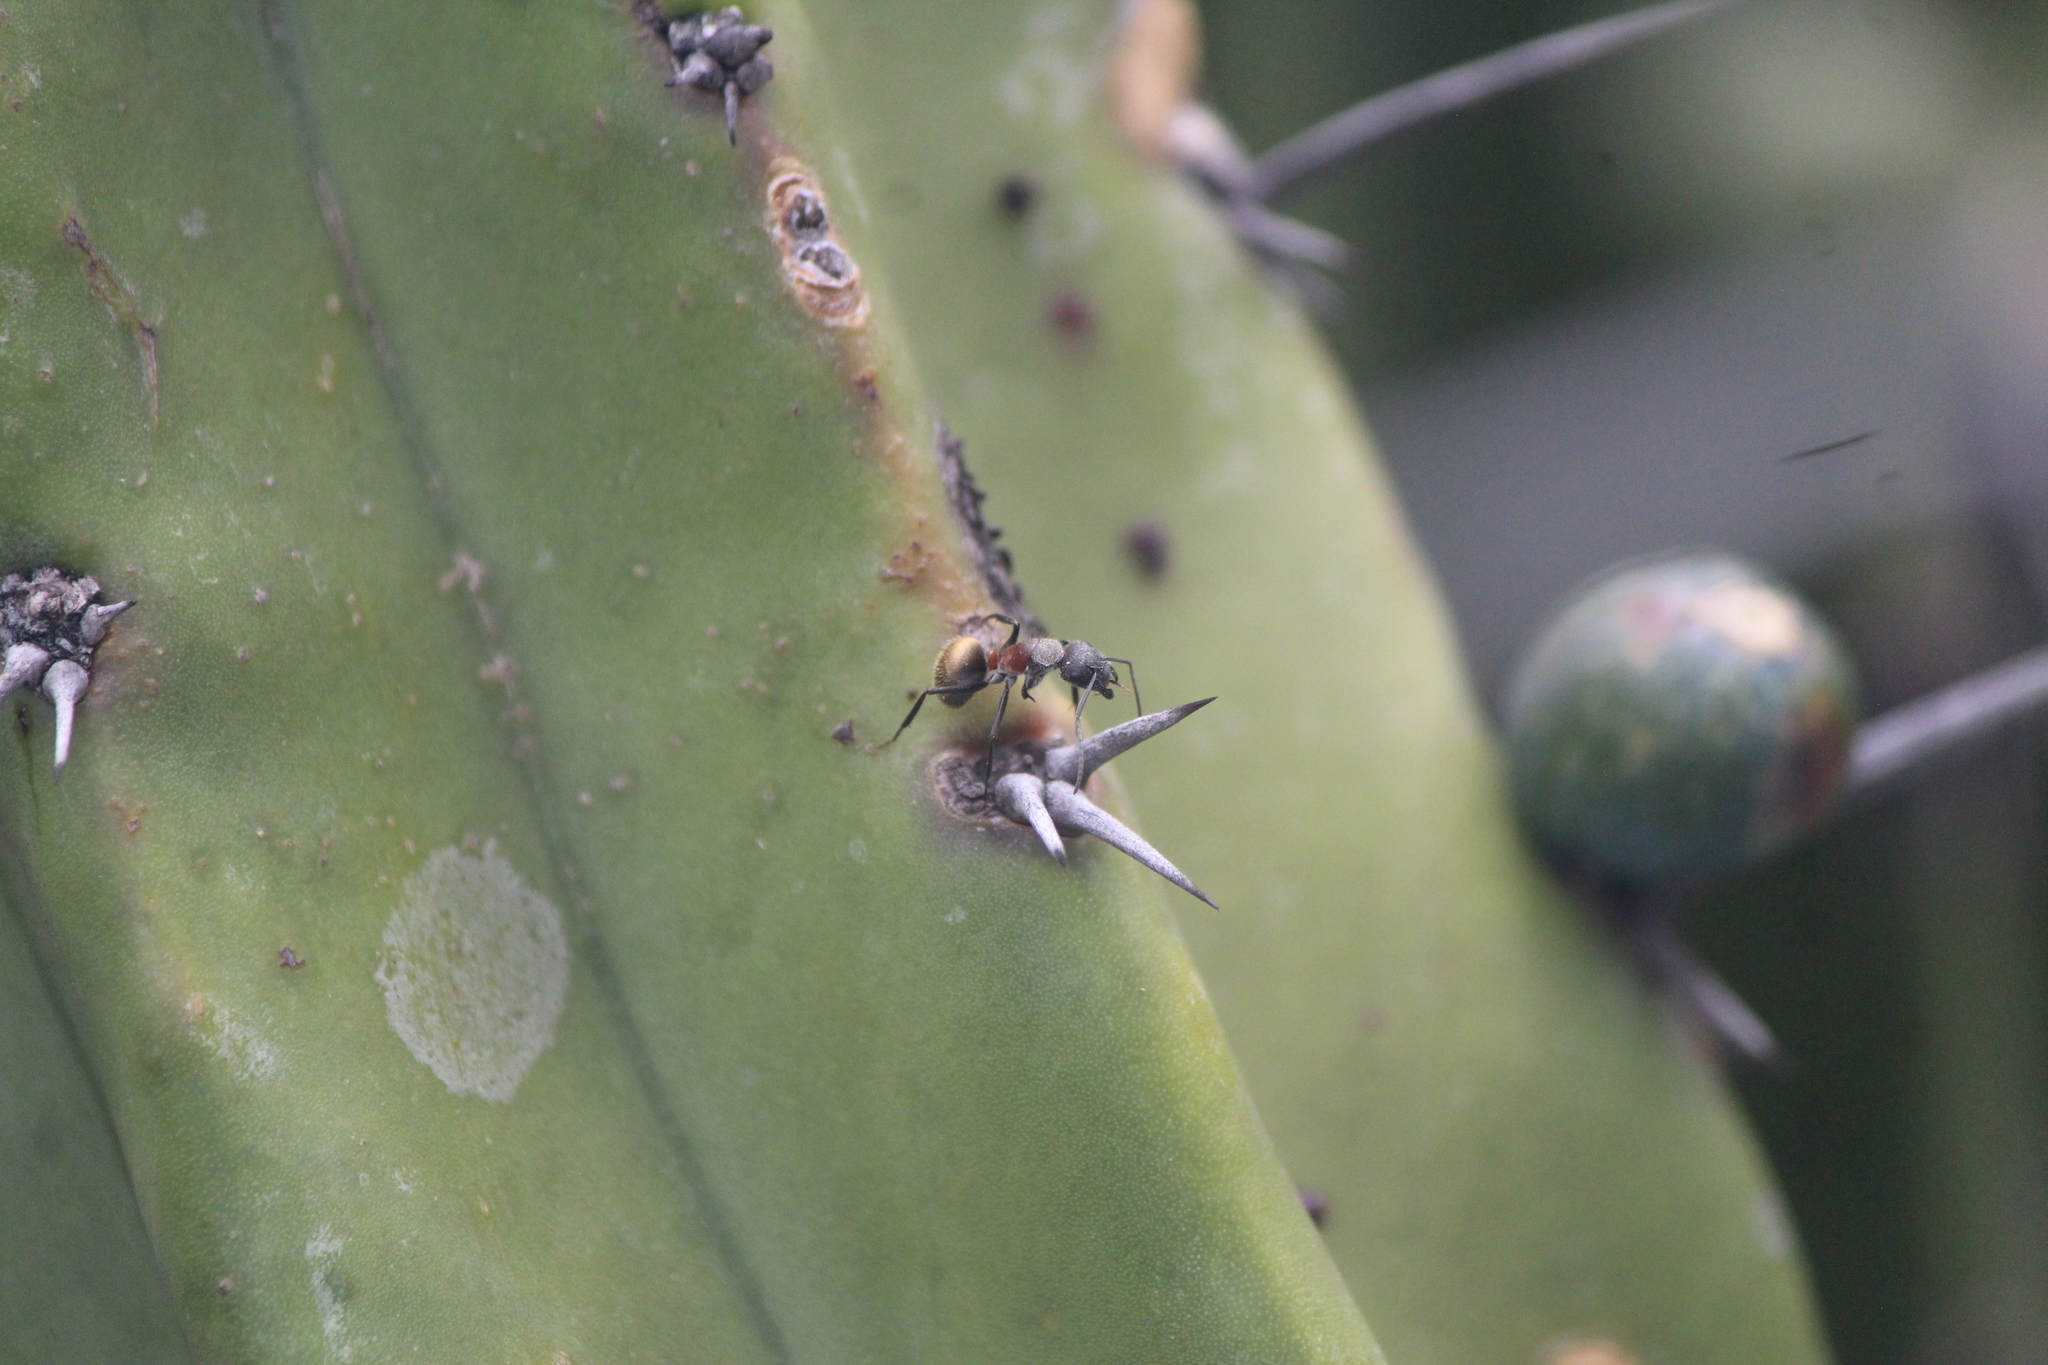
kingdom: Animalia
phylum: Arthropoda
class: Insecta
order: Hymenoptera
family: Formicidae
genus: Camponotus
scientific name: Camponotus pellarius
